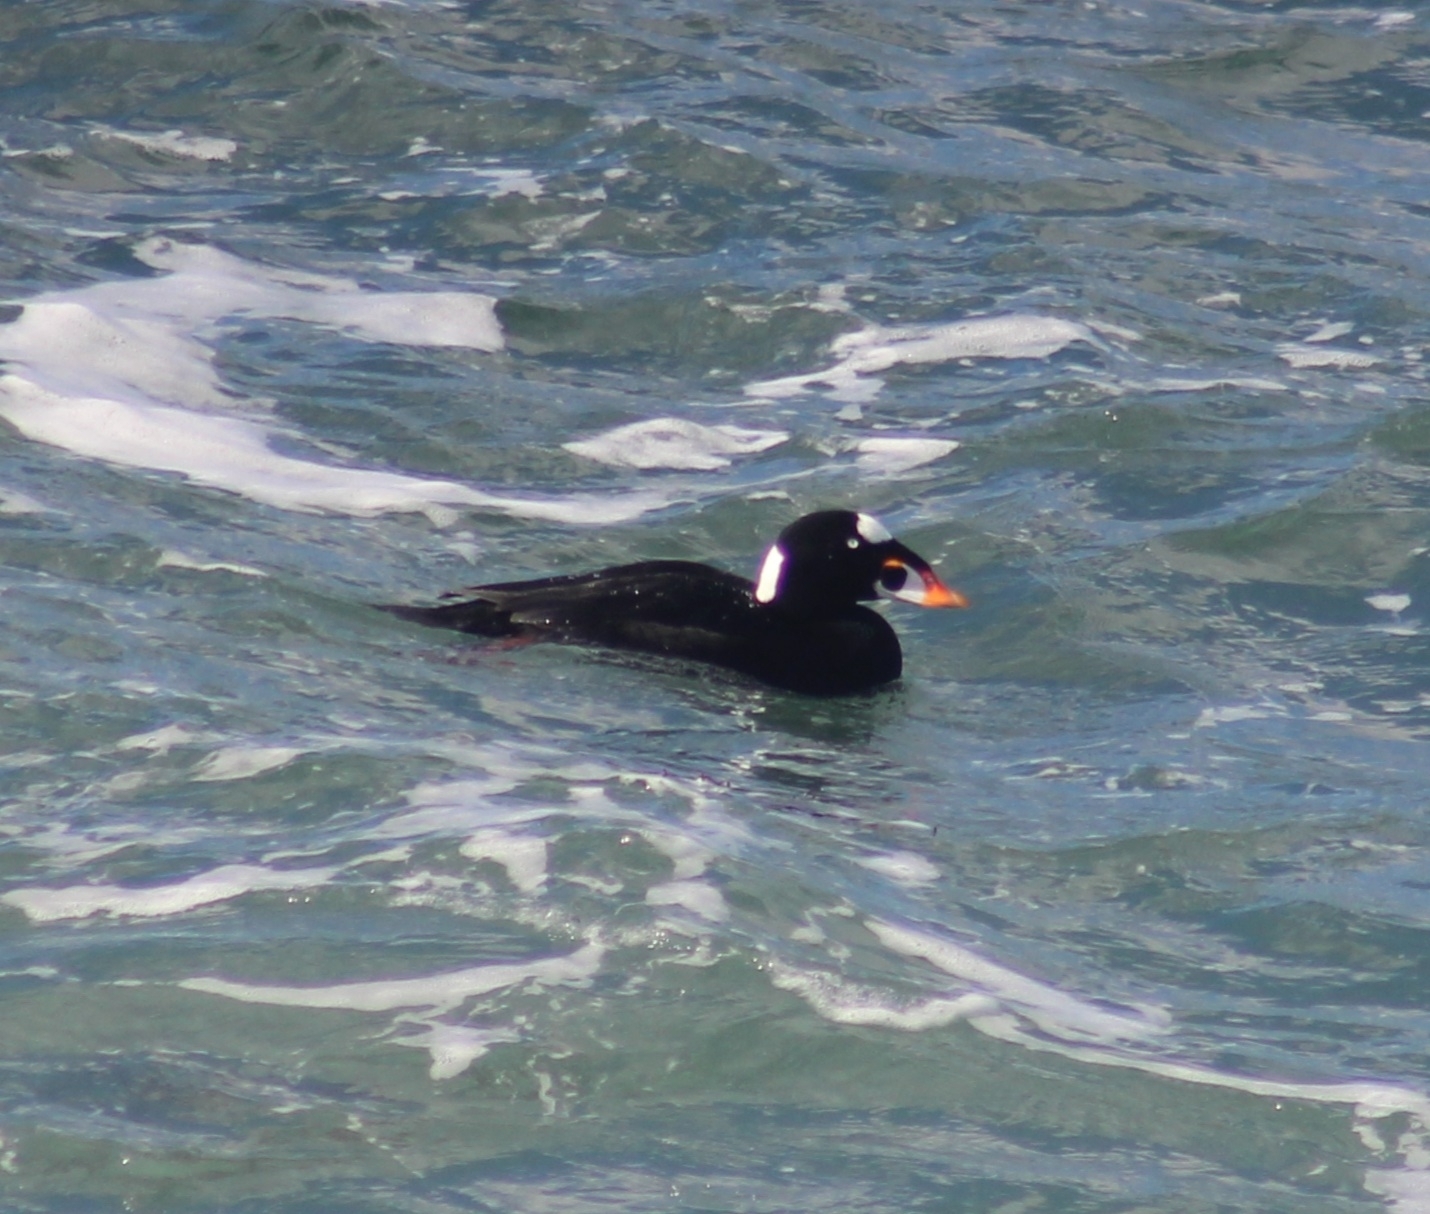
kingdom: Animalia
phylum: Chordata
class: Aves
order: Anseriformes
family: Anatidae
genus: Melanitta
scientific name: Melanitta perspicillata
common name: Surf scoter
